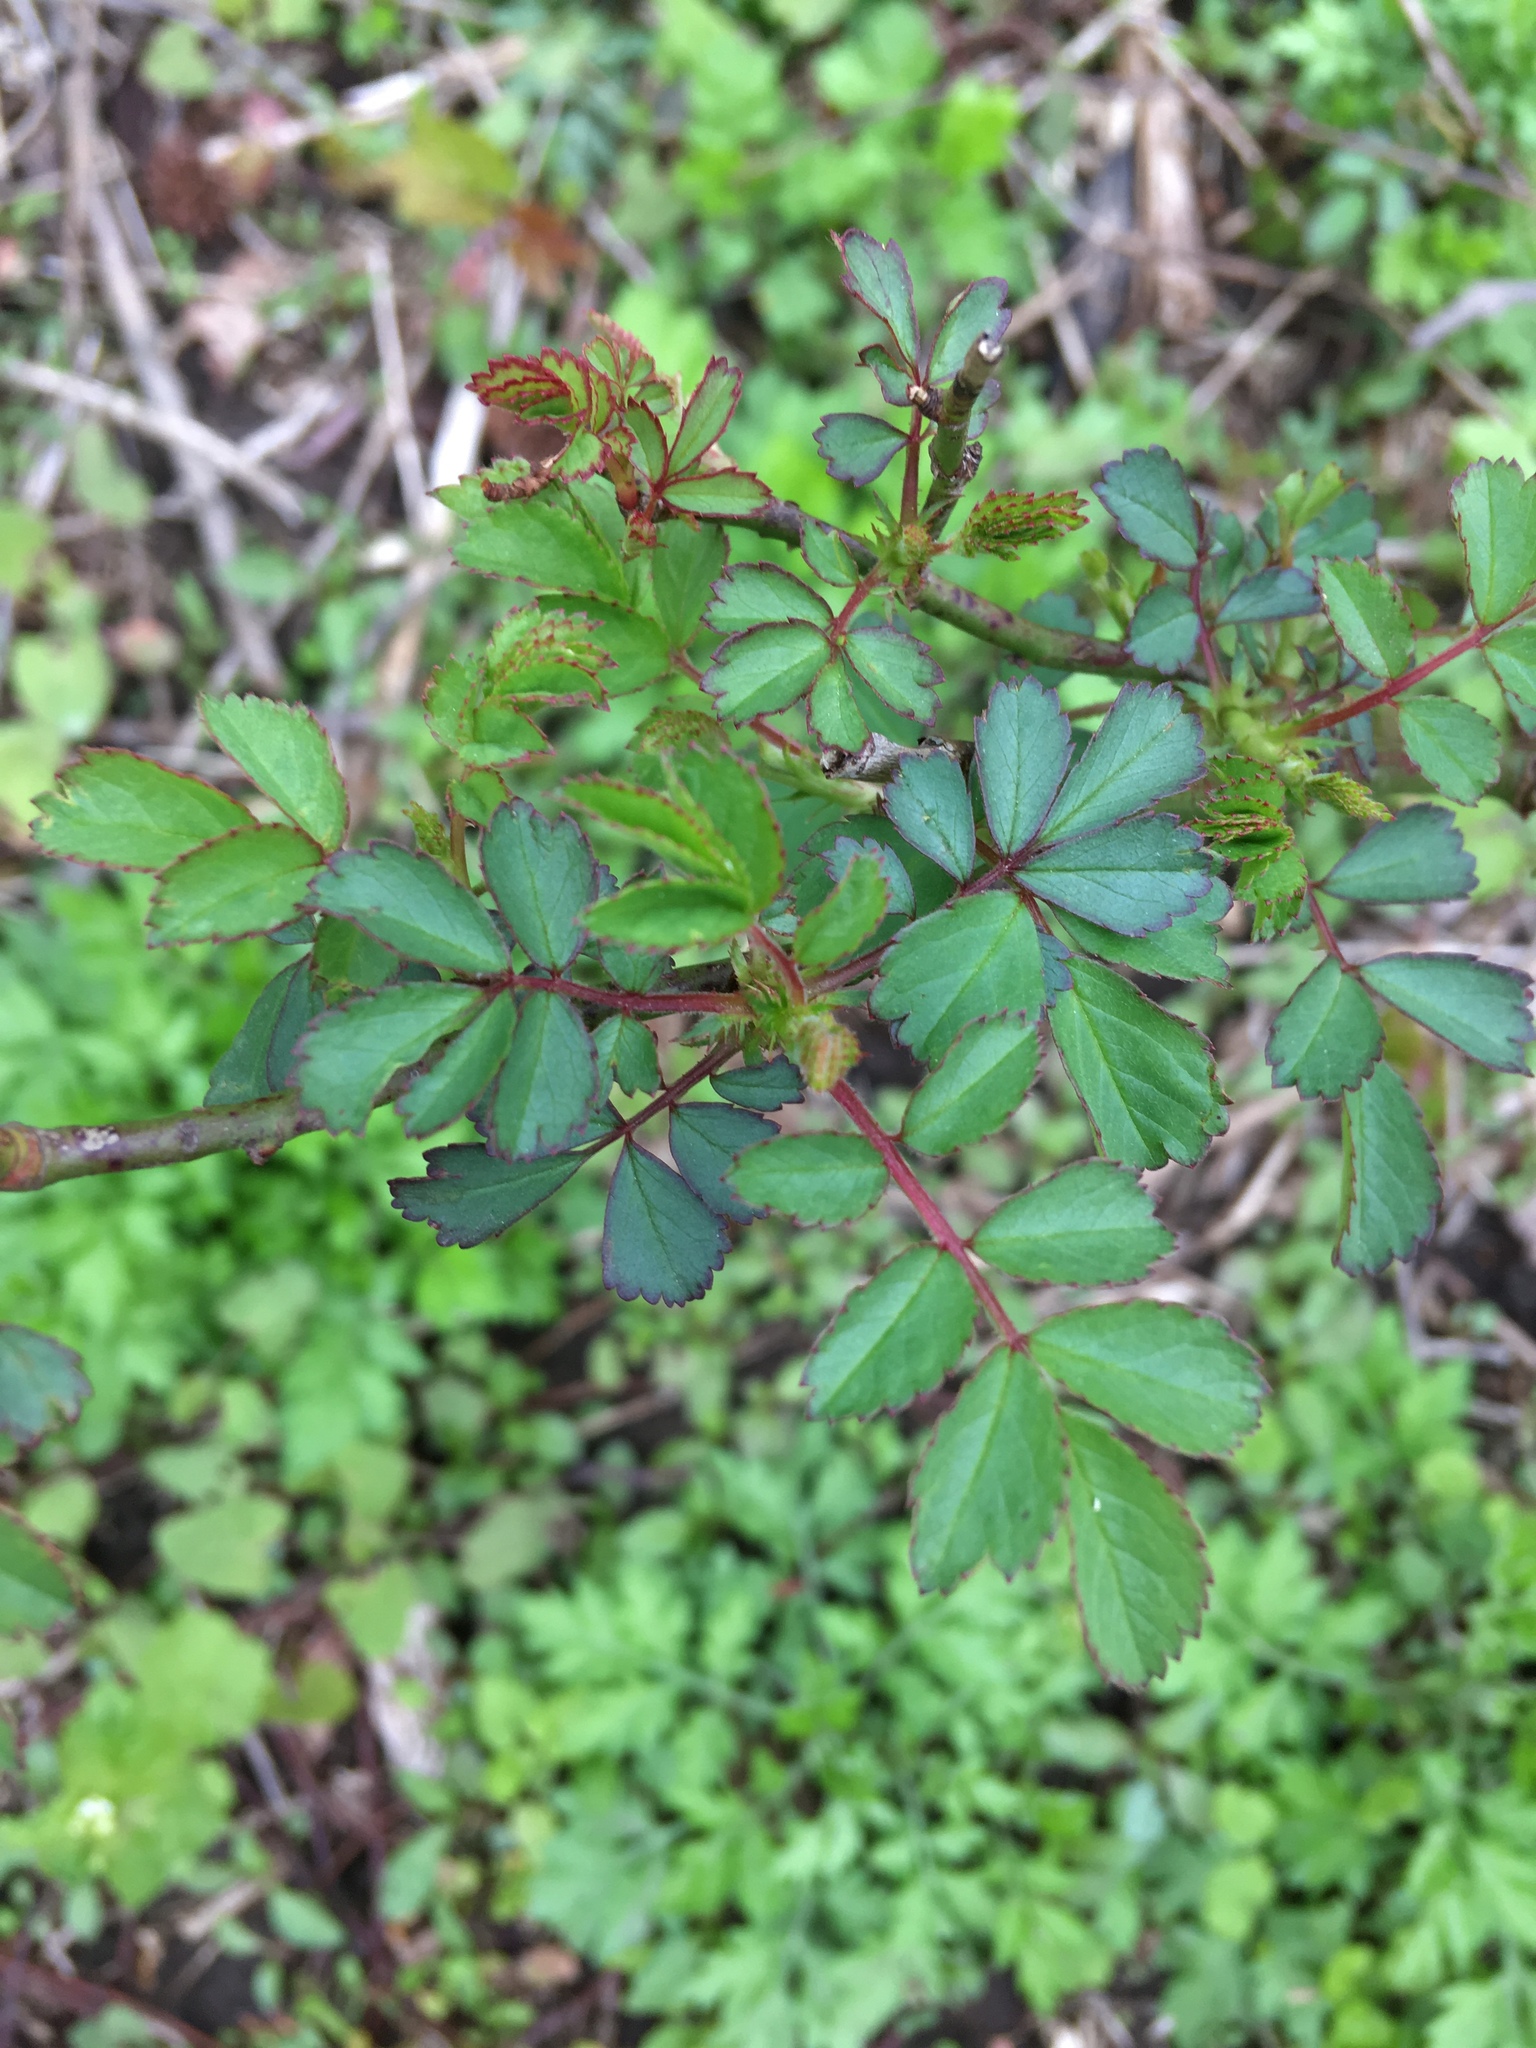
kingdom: Plantae
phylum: Tracheophyta
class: Magnoliopsida
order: Rosales
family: Rosaceae
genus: Rosa
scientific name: Rosa multiflora
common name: Multiflora rose
